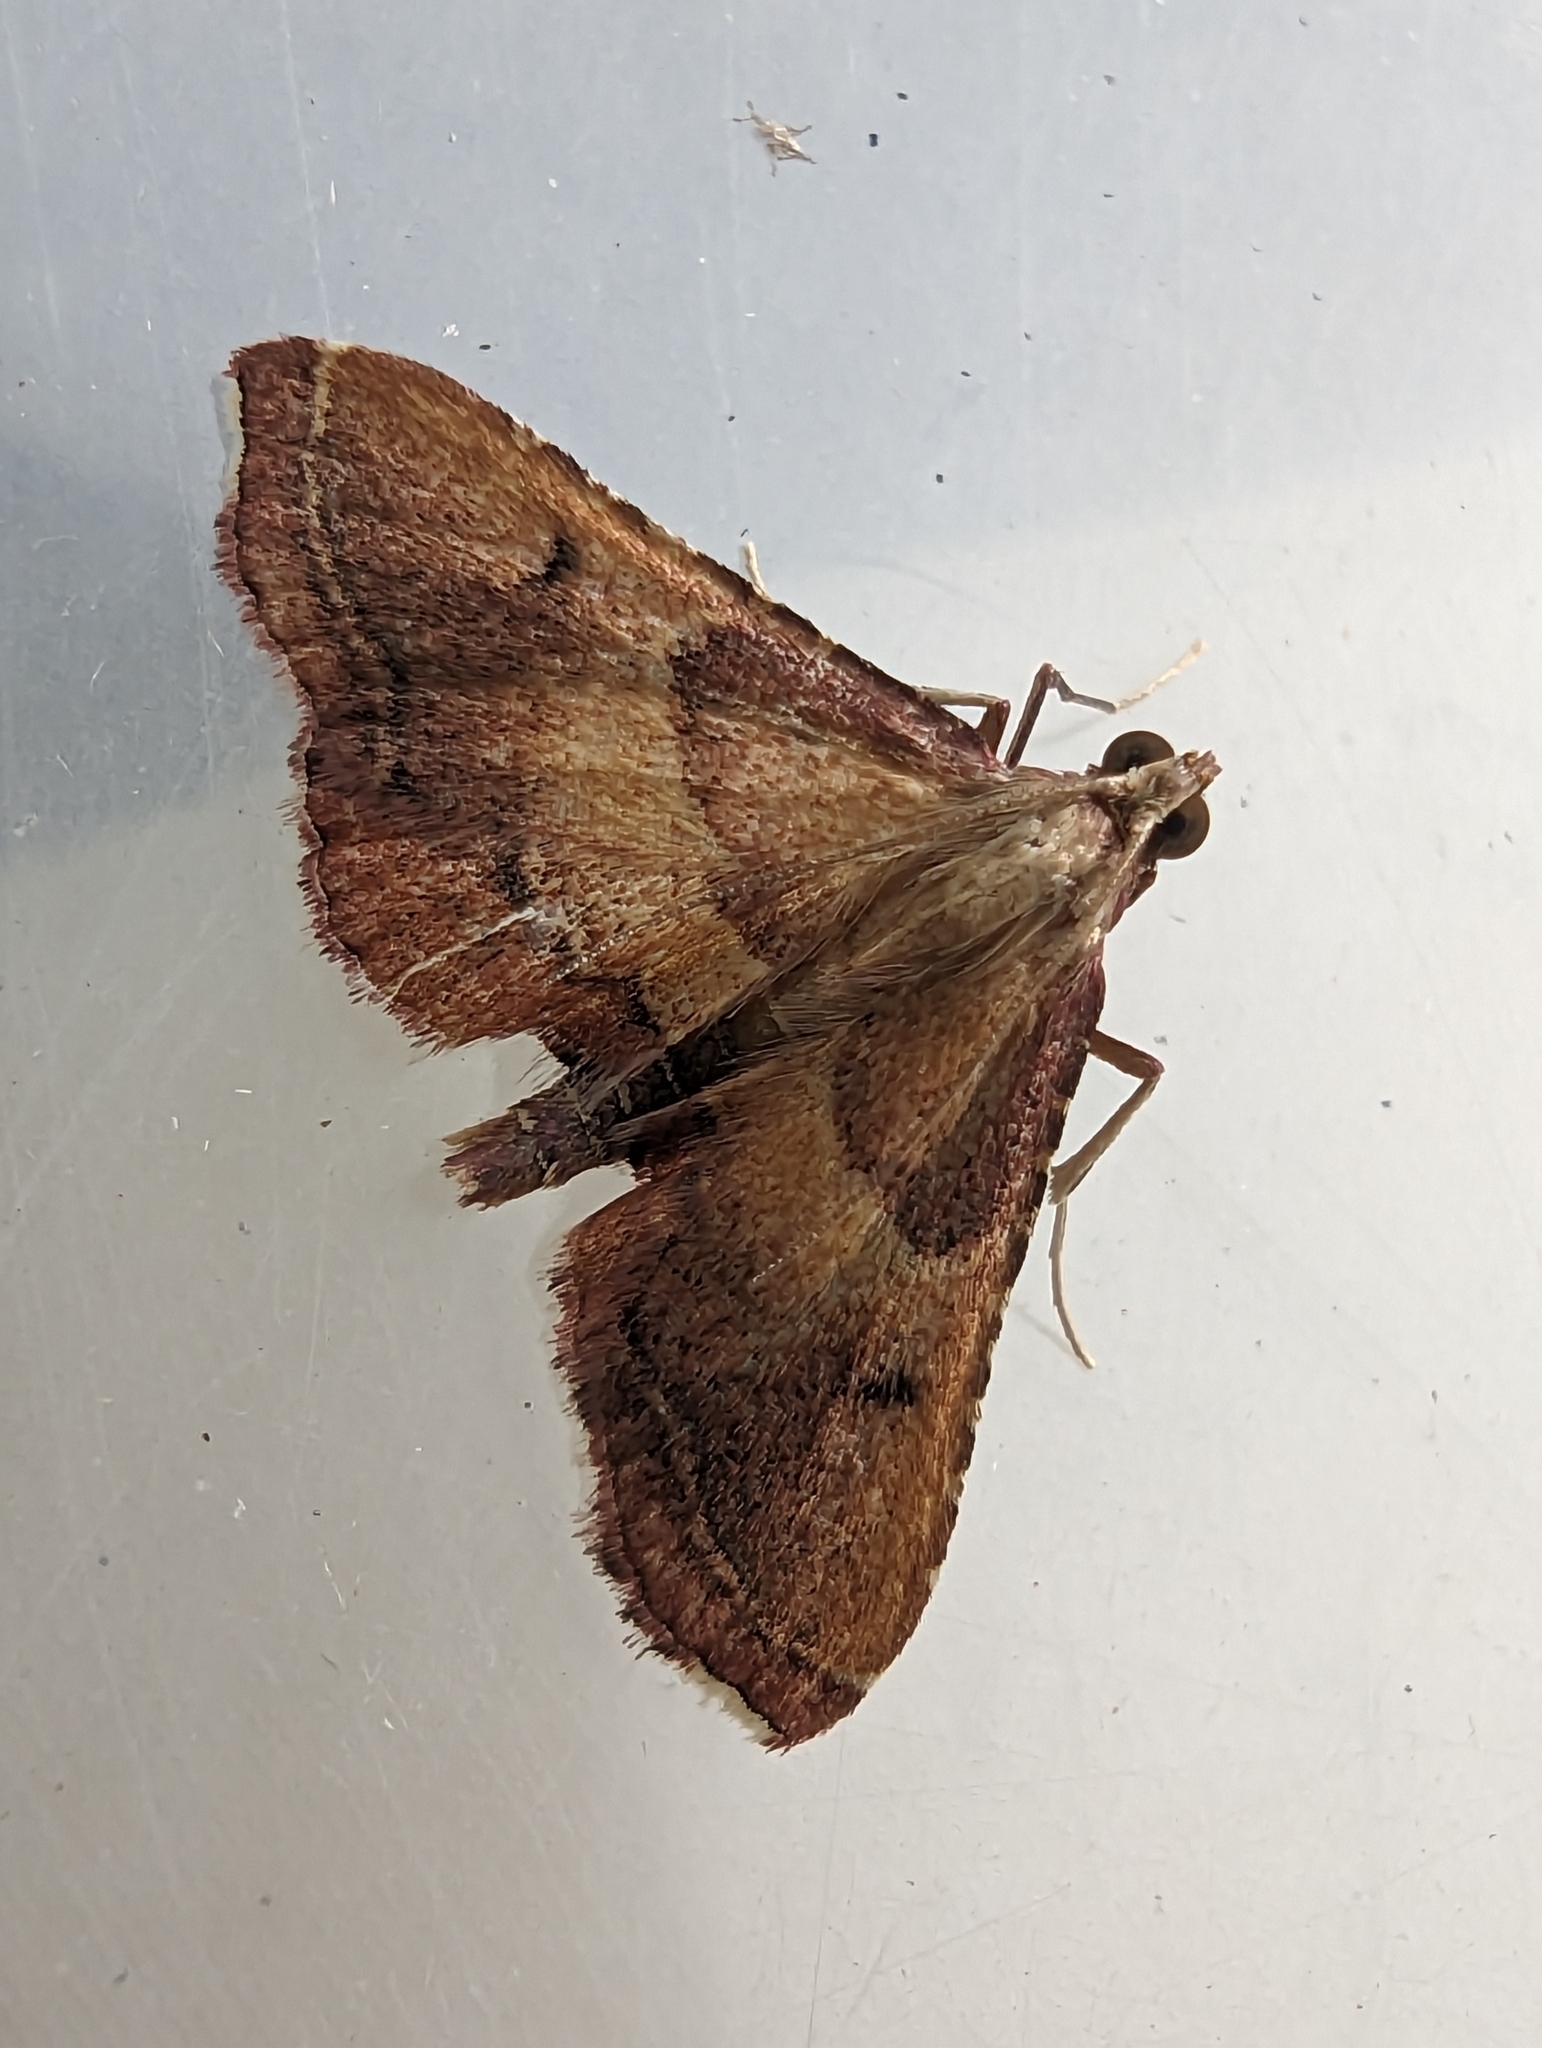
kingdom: Animalia
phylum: Arthropoda
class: Insecta
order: Lepidoptera
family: Pyralidae
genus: Endotricha
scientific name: Endotricha flammealis
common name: Rosy tabby
